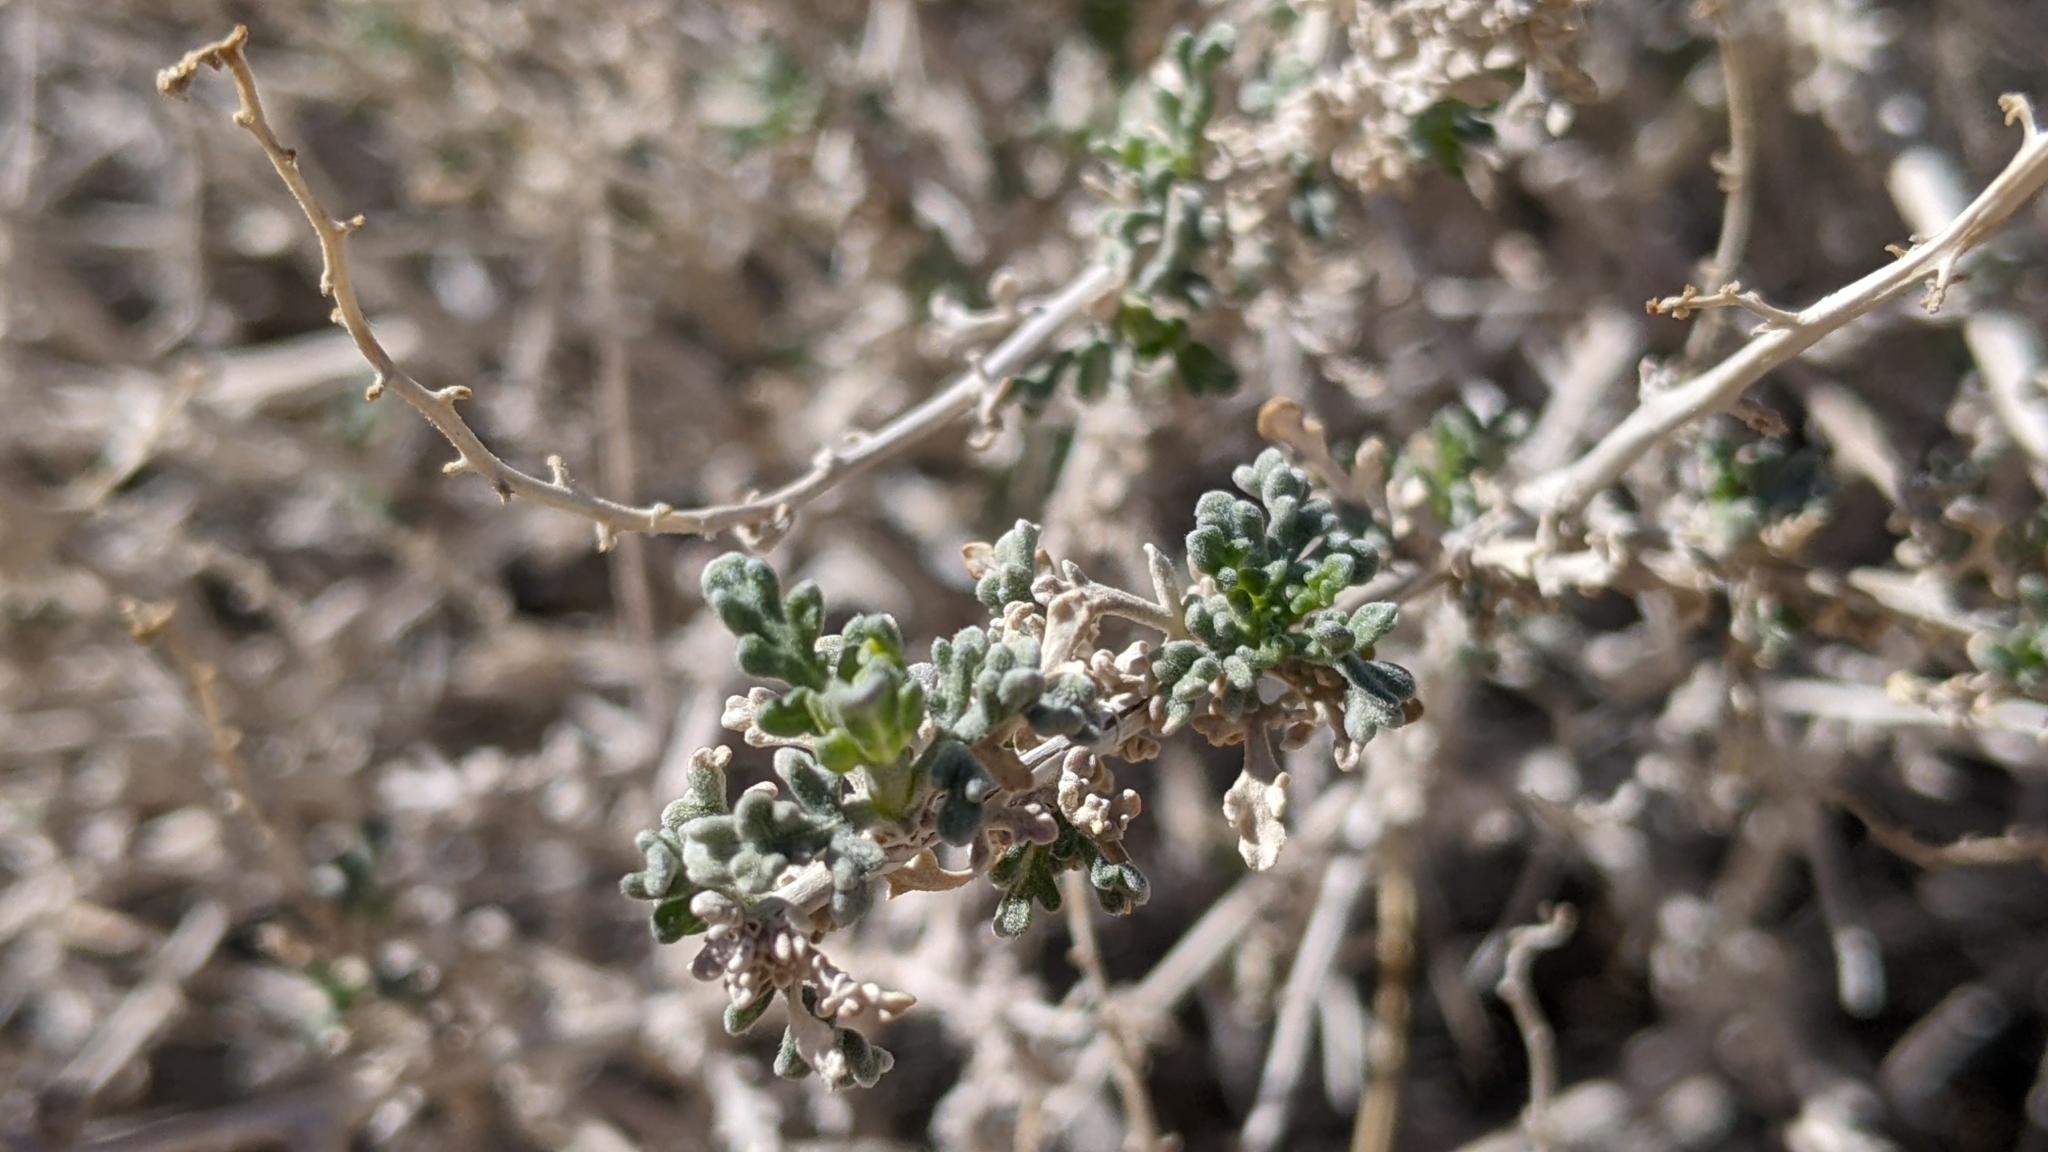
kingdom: Plantae
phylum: Tracheophyta
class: Magnoliopsida
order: Asterales
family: Asteraceae
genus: Ambrosia
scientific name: Ambrosia dumosa
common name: Bur-sage
